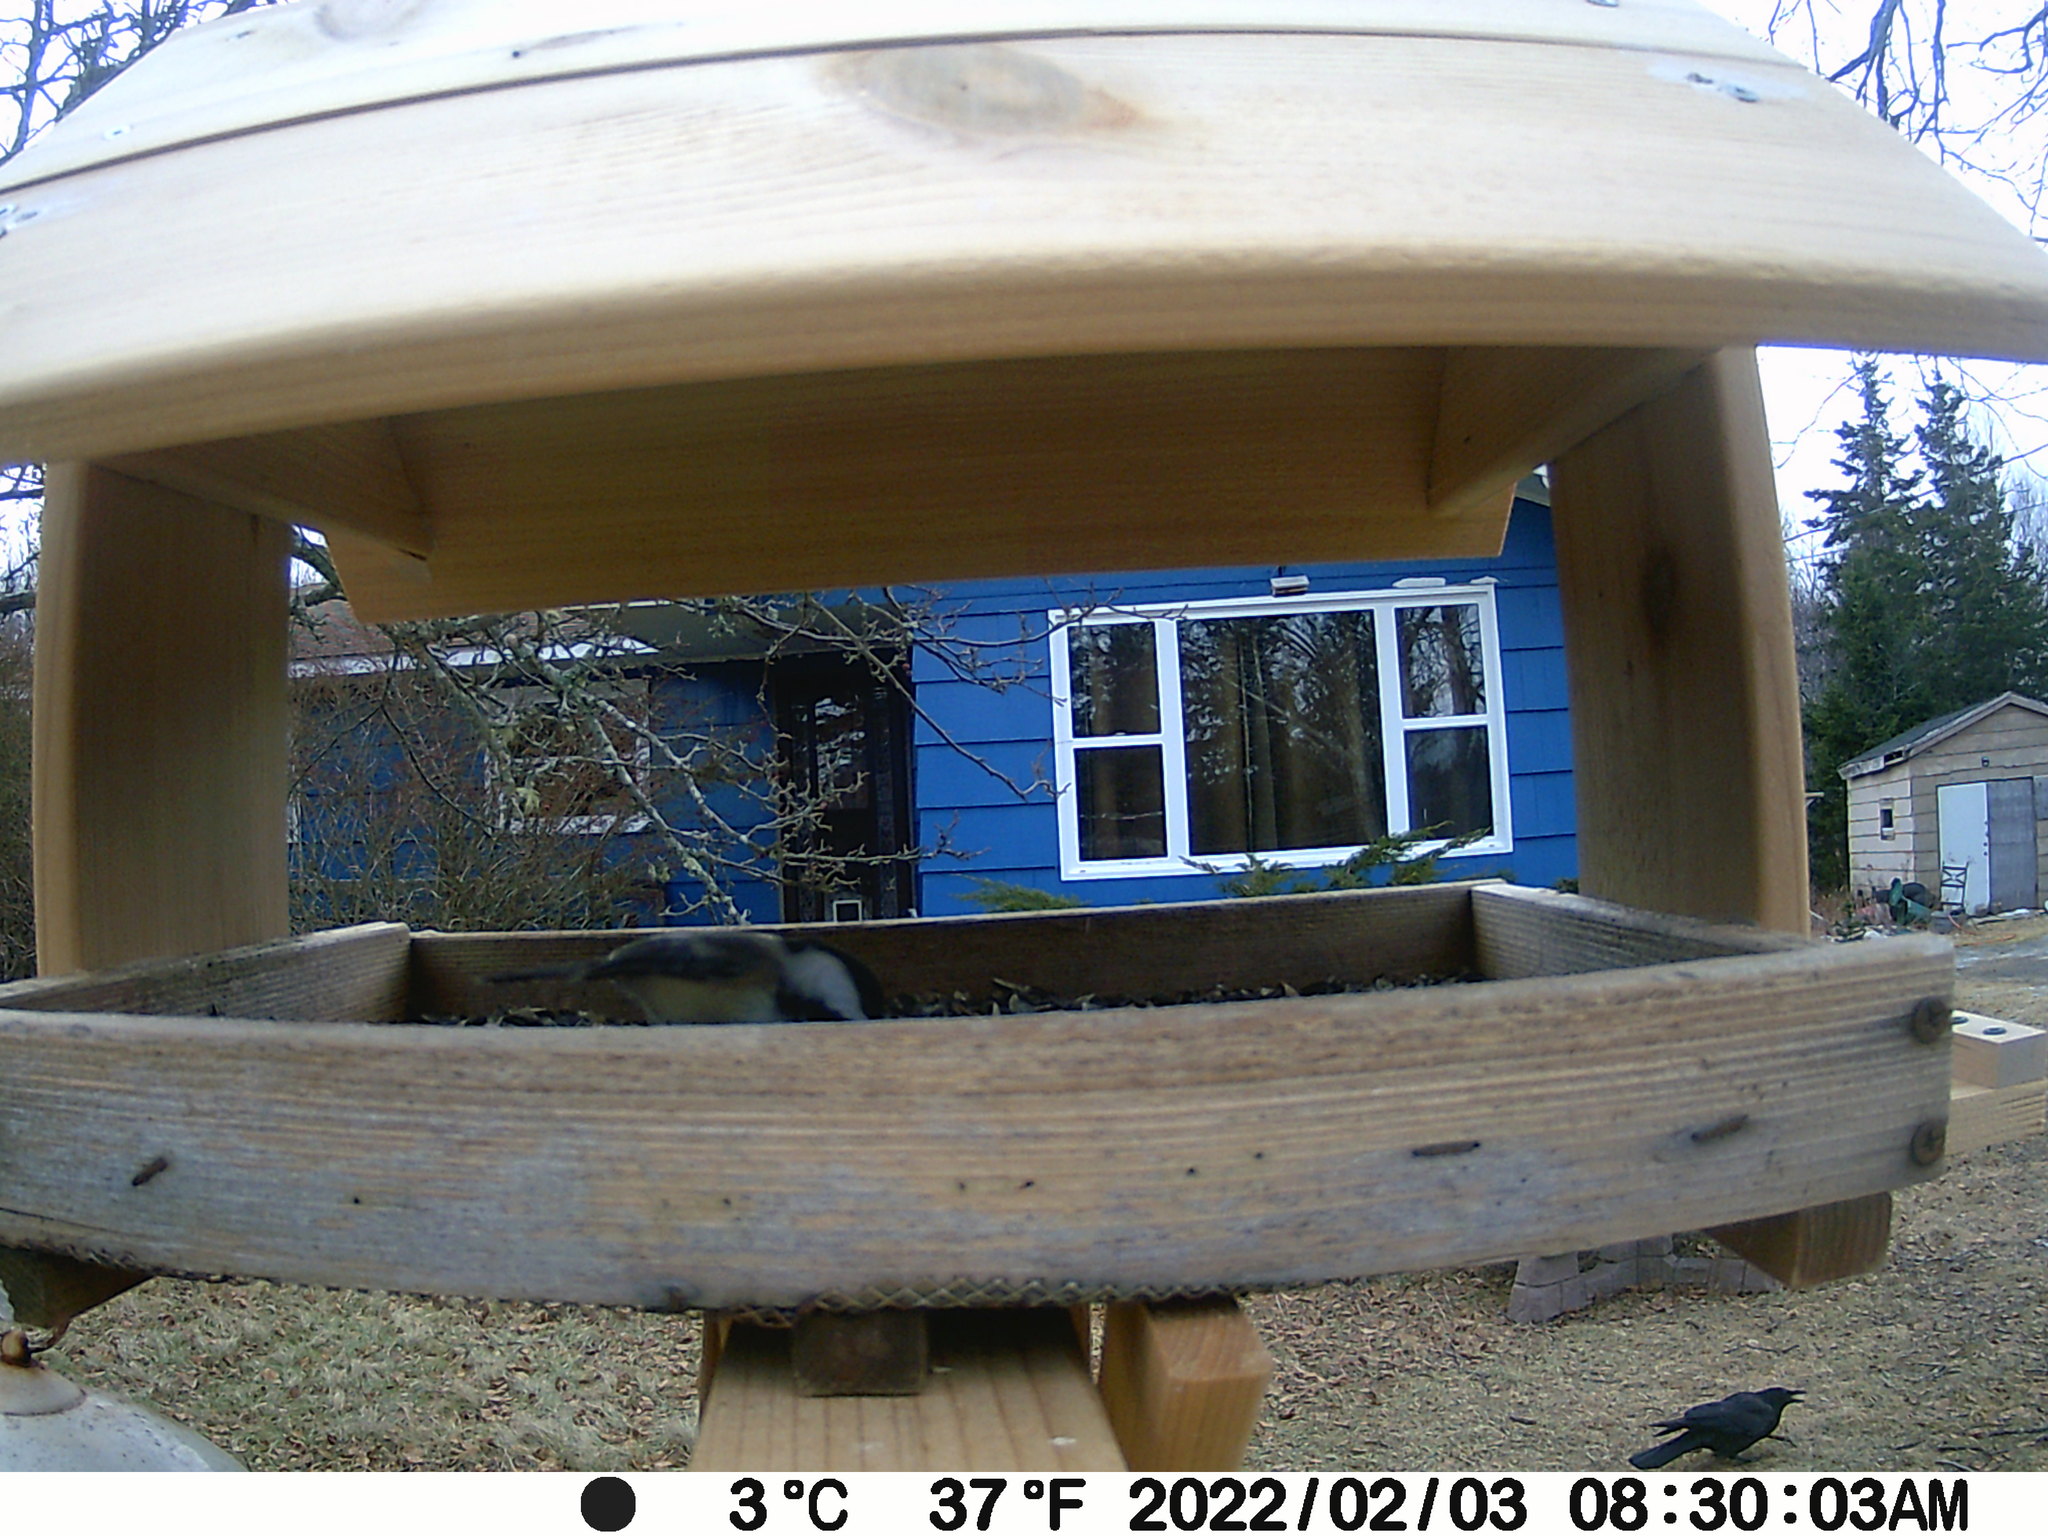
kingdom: Animalia
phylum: Chordata
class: Aves
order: Passeriformes
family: Corvidae
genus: Corvus
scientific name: Corvus brachyrhynchos
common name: American crow
